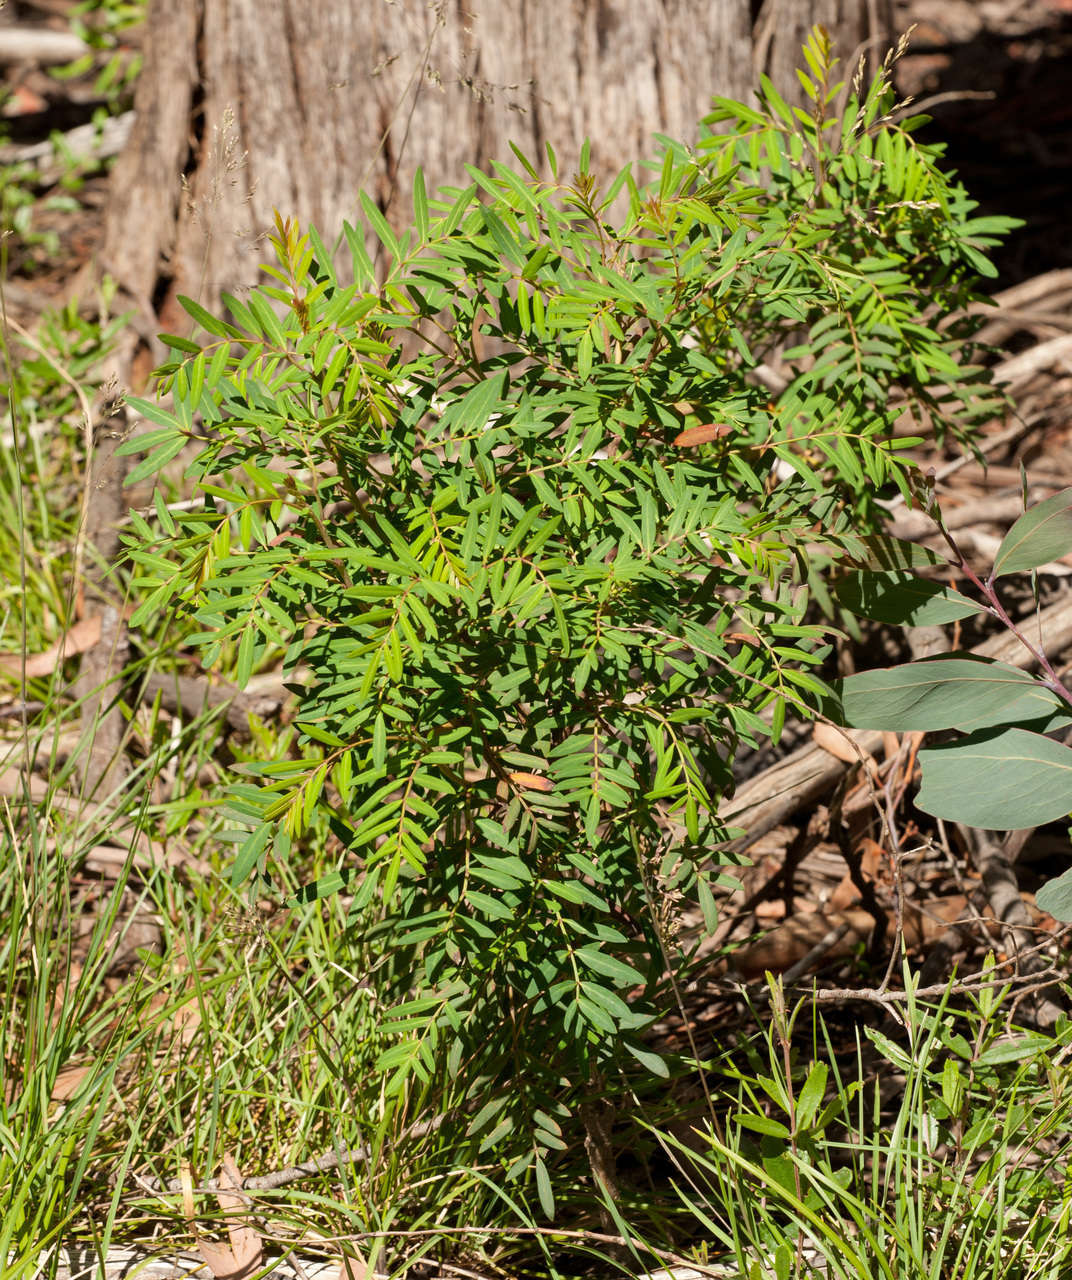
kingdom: Plantae
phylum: Tracheophyta
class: Magnoliopsida
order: Apiales
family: Araliaceae
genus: Polyscias
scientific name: Polyscias sambucifolia
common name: Elderberry-ash
